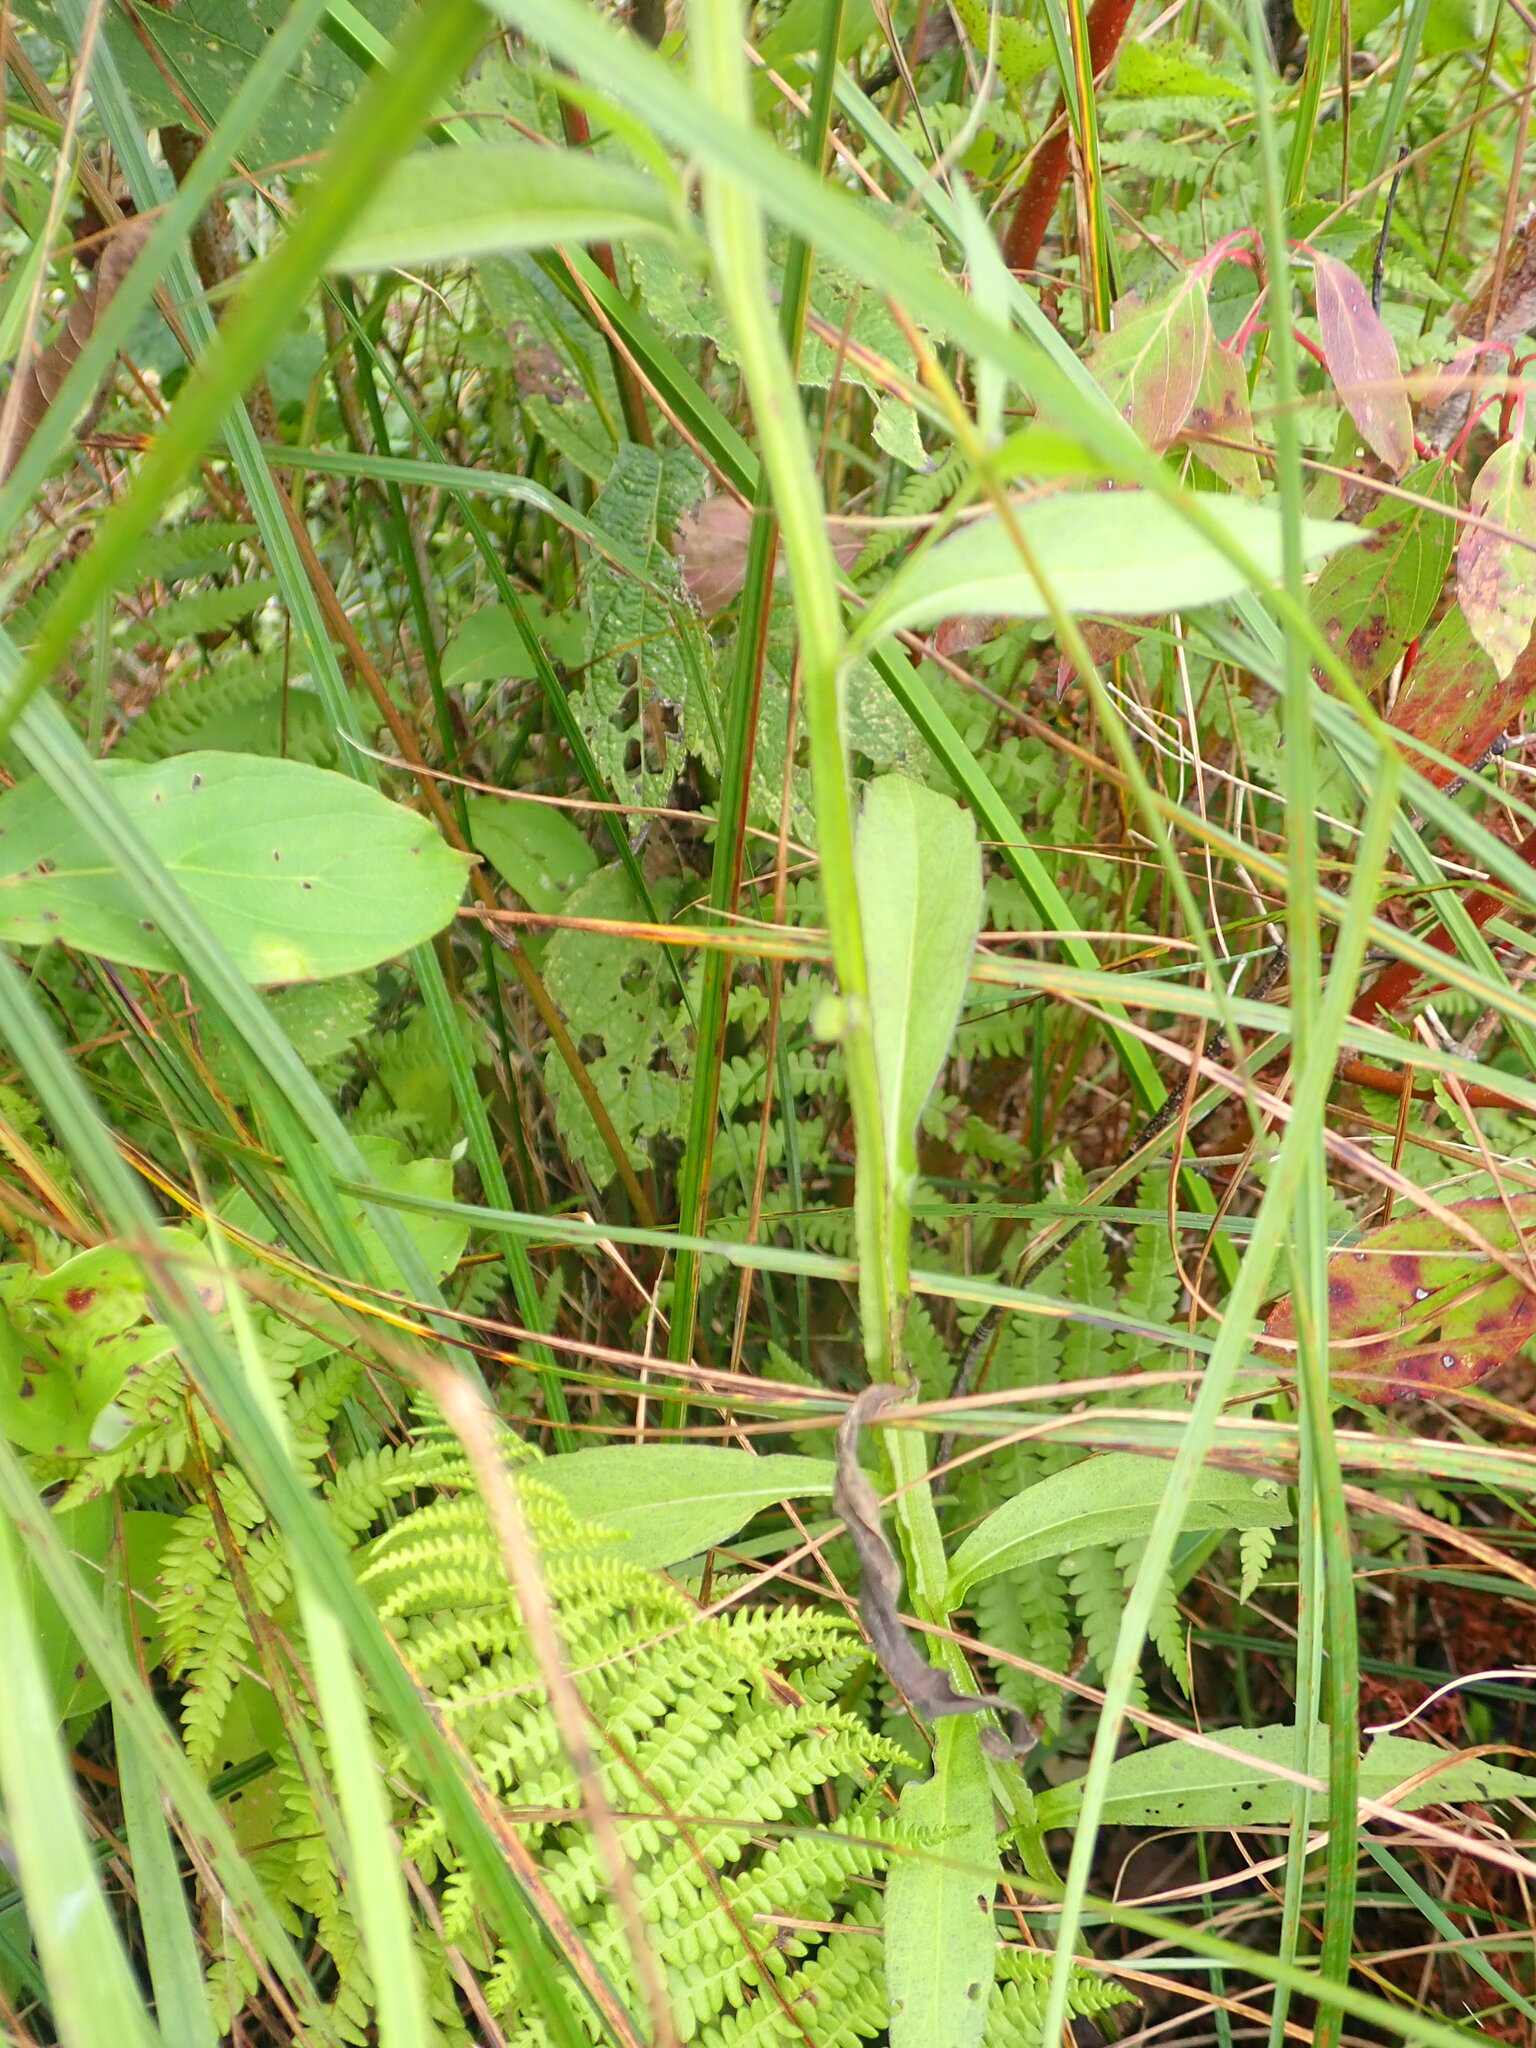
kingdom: Plantae
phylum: Tracheophyta
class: Magnoliopsida
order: Asterales
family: Asteraceae
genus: Helenium
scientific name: Helenium autumnale
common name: Sneezeweed
